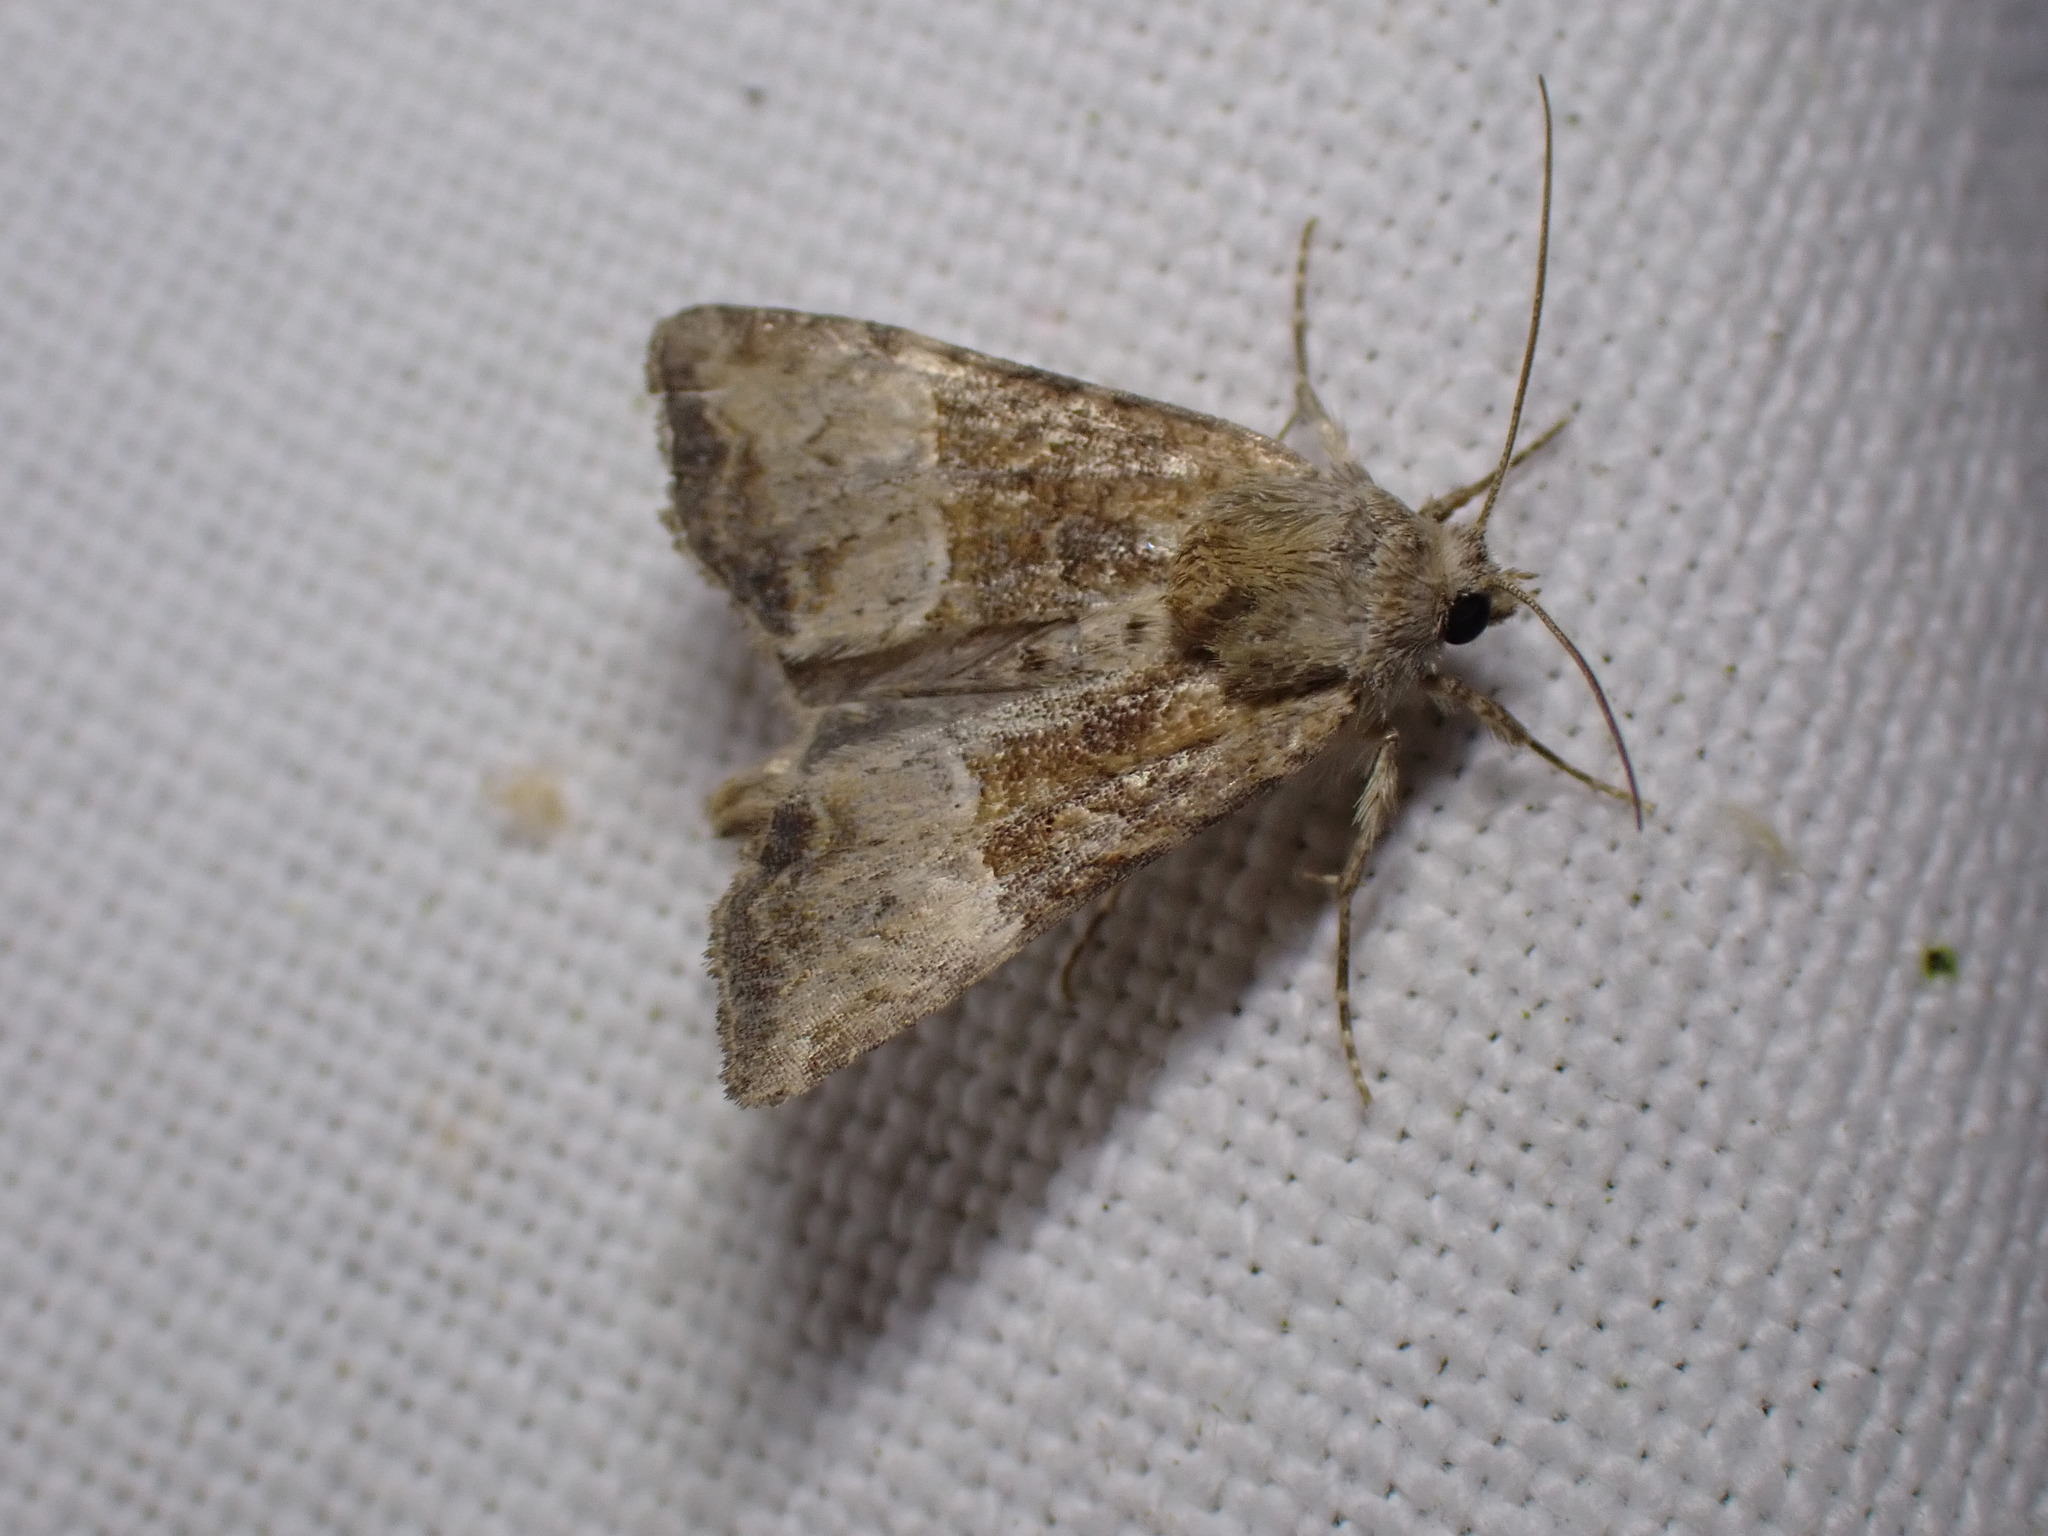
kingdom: Animalia
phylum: Arthropoda
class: Insecta
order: Lepidoptera
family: Noctuidae
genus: Mesoligia
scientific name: Mesoligia furuncula
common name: Cloaked minor
